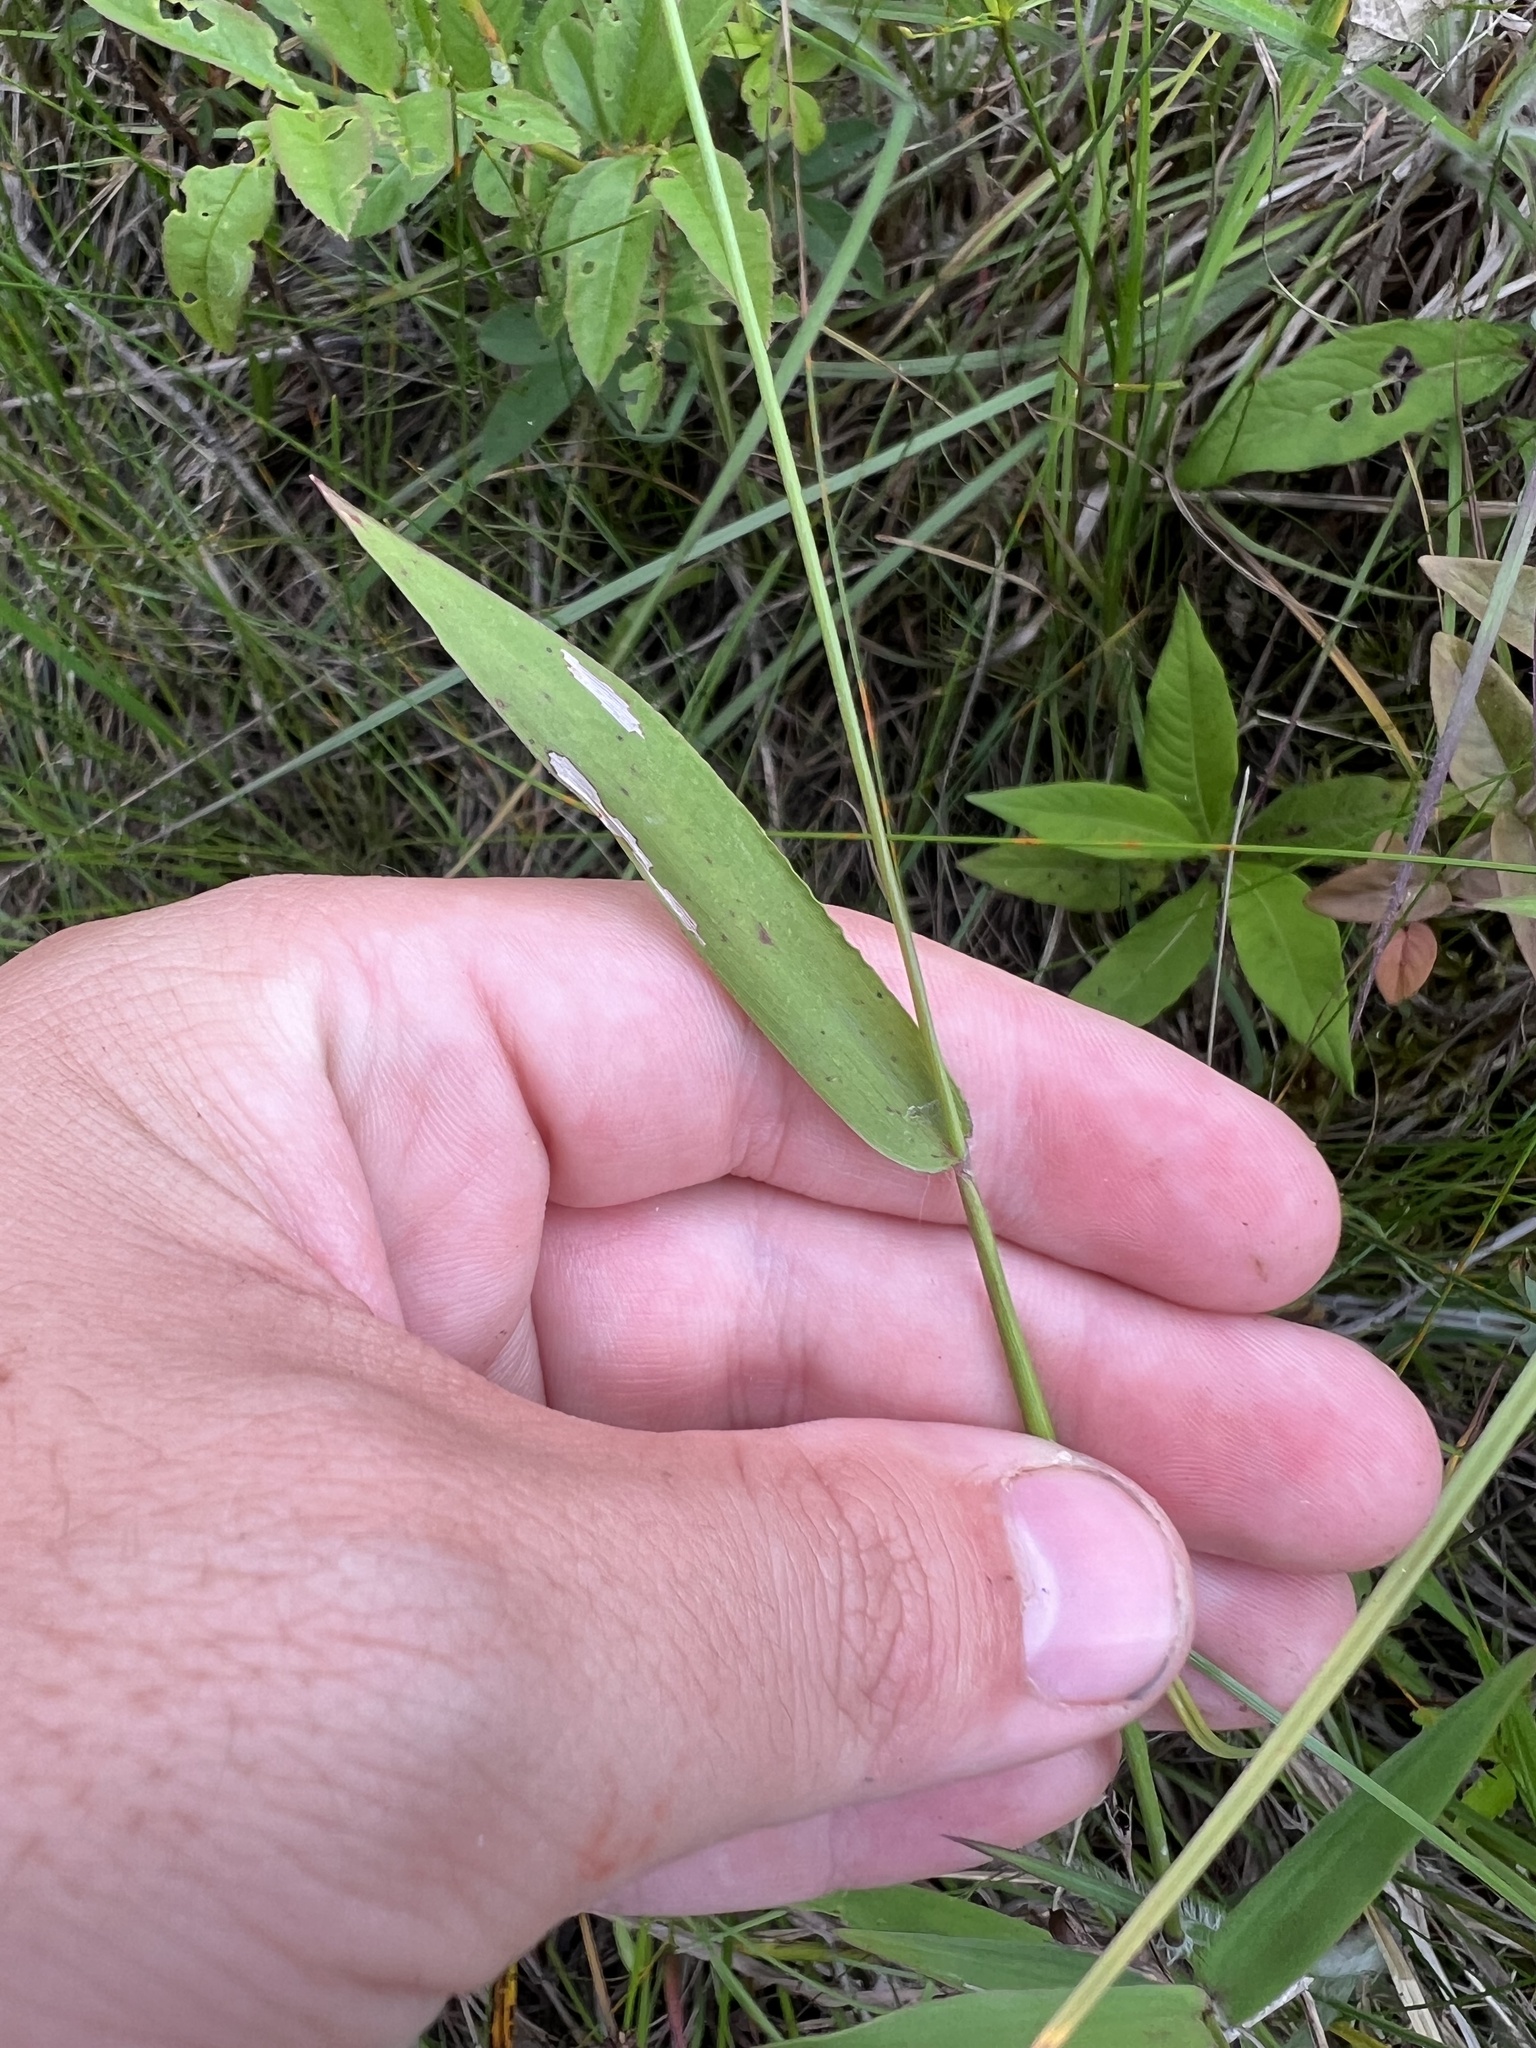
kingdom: Plantae
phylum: Tracheophyta
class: Liliopsida
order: Poales
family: Poaceae
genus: Dichanthelium
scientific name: Dichanthelium microcarpon
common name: Small-fruited witchgrass
